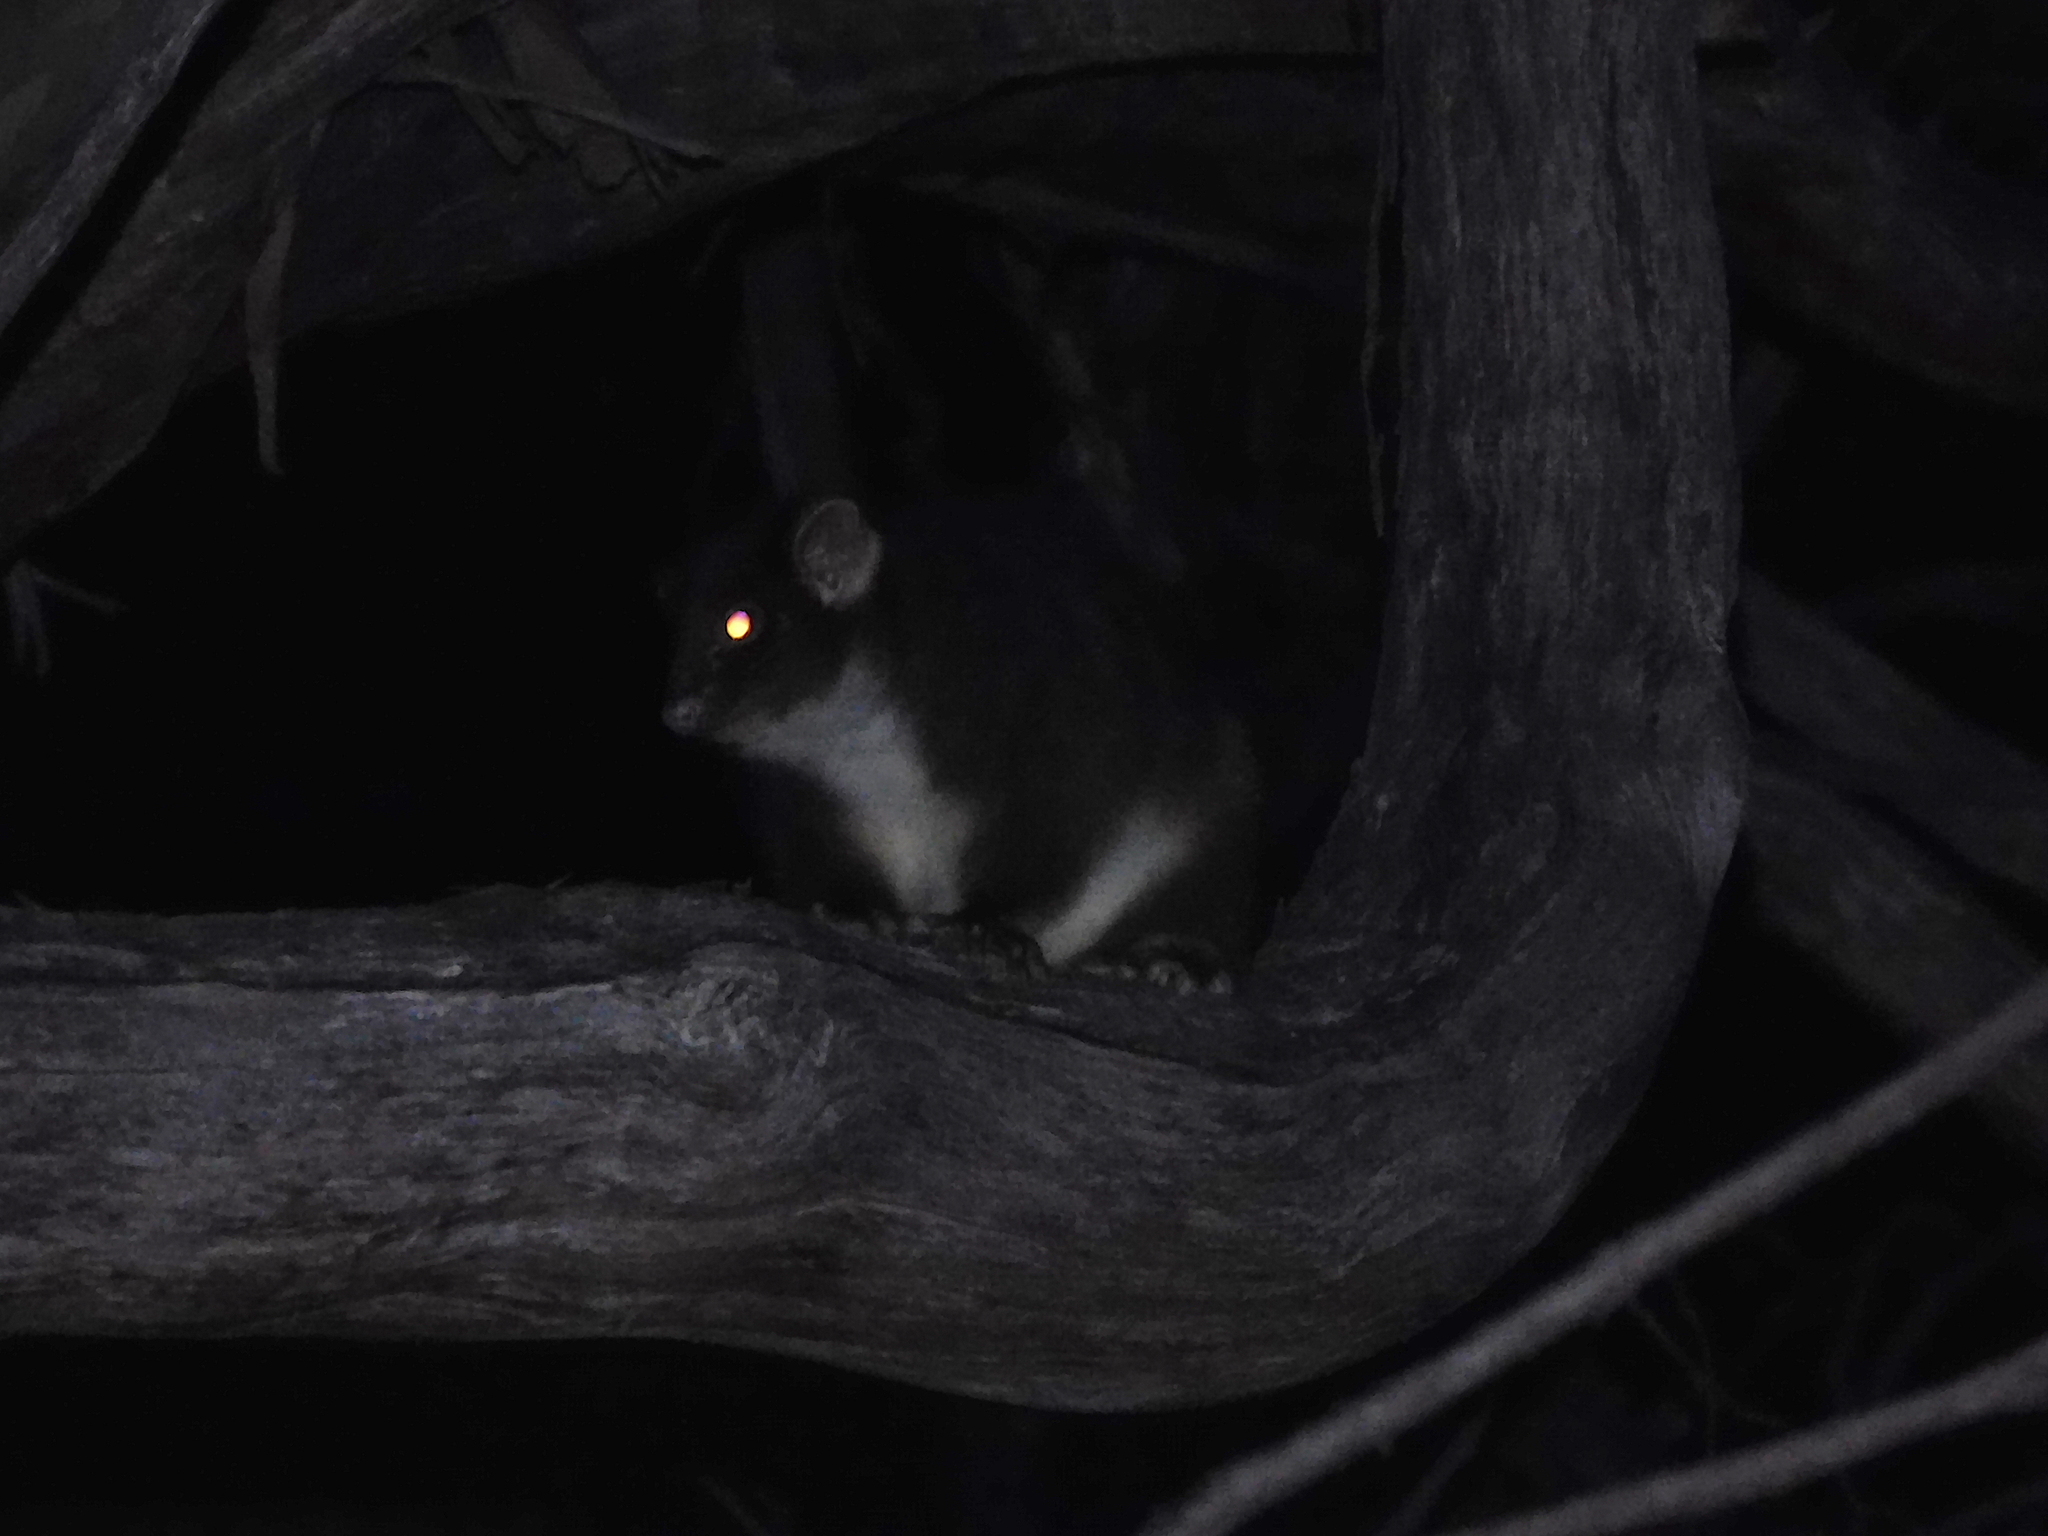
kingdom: Animalia
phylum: Chordata
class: Mammalia
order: Diprotodontia
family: Pseudocheiridae
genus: Pseudocheirus
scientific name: Pseudocheirus peregrinus
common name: Common ringtail possum
